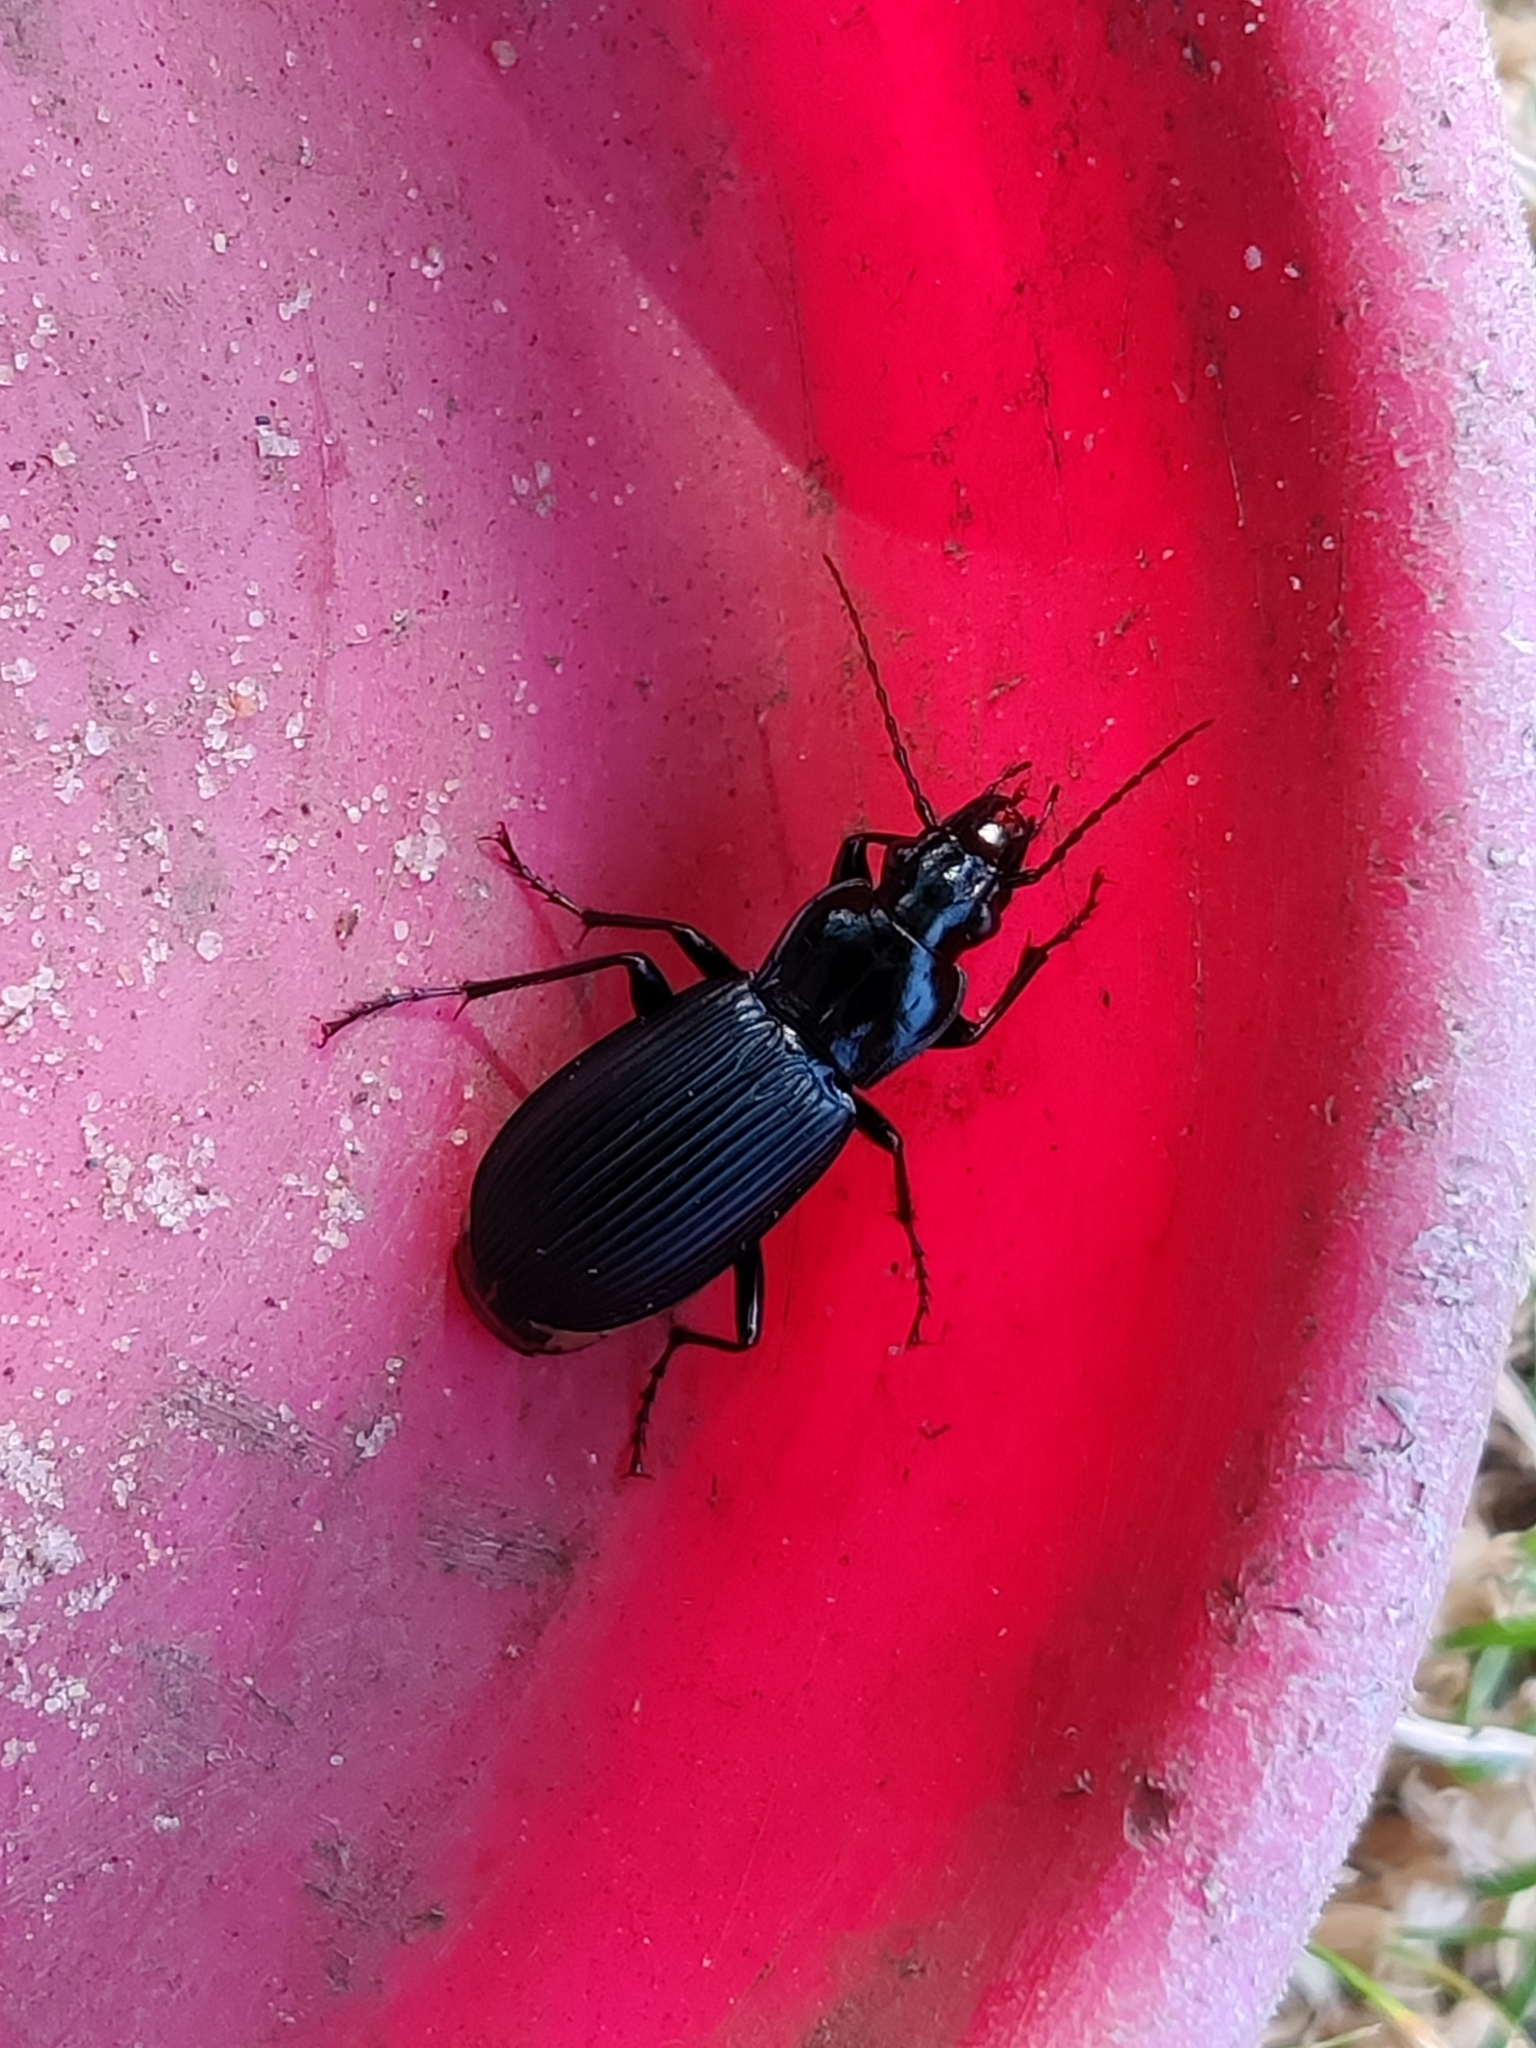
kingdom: Animalia
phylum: Arthropoda
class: Insecta
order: Coleoptera
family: Carabidae
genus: Pterostichus
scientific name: Pterostichus niger
